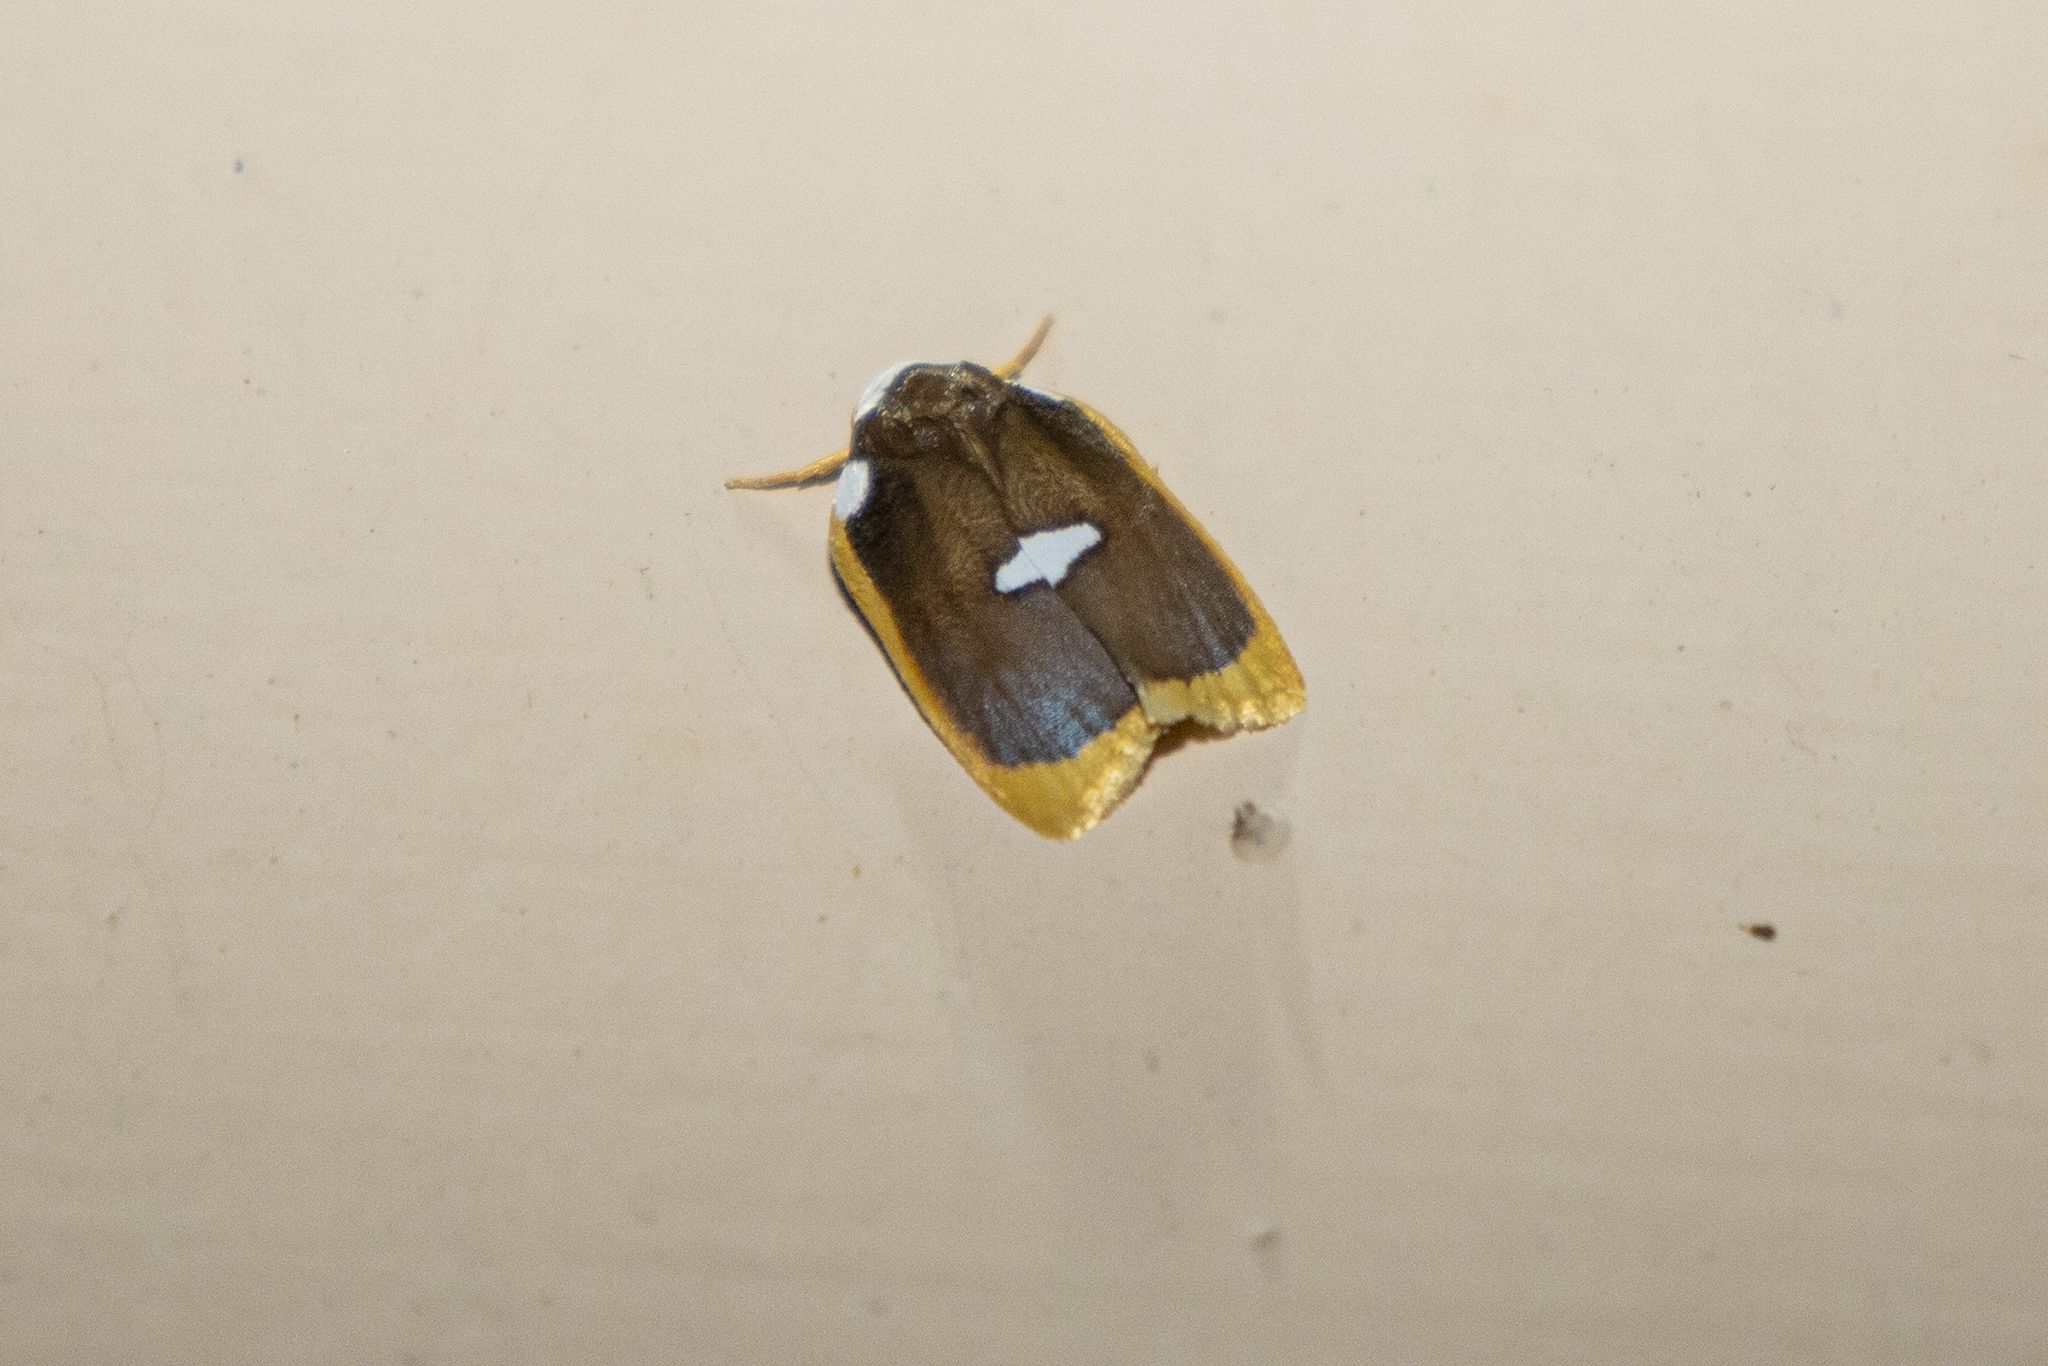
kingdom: Animalia
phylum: Arthropoda
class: Insecta
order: Lepidoptera
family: Erebidae
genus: Lobobasis
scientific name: Lobobasis niveimaculata
